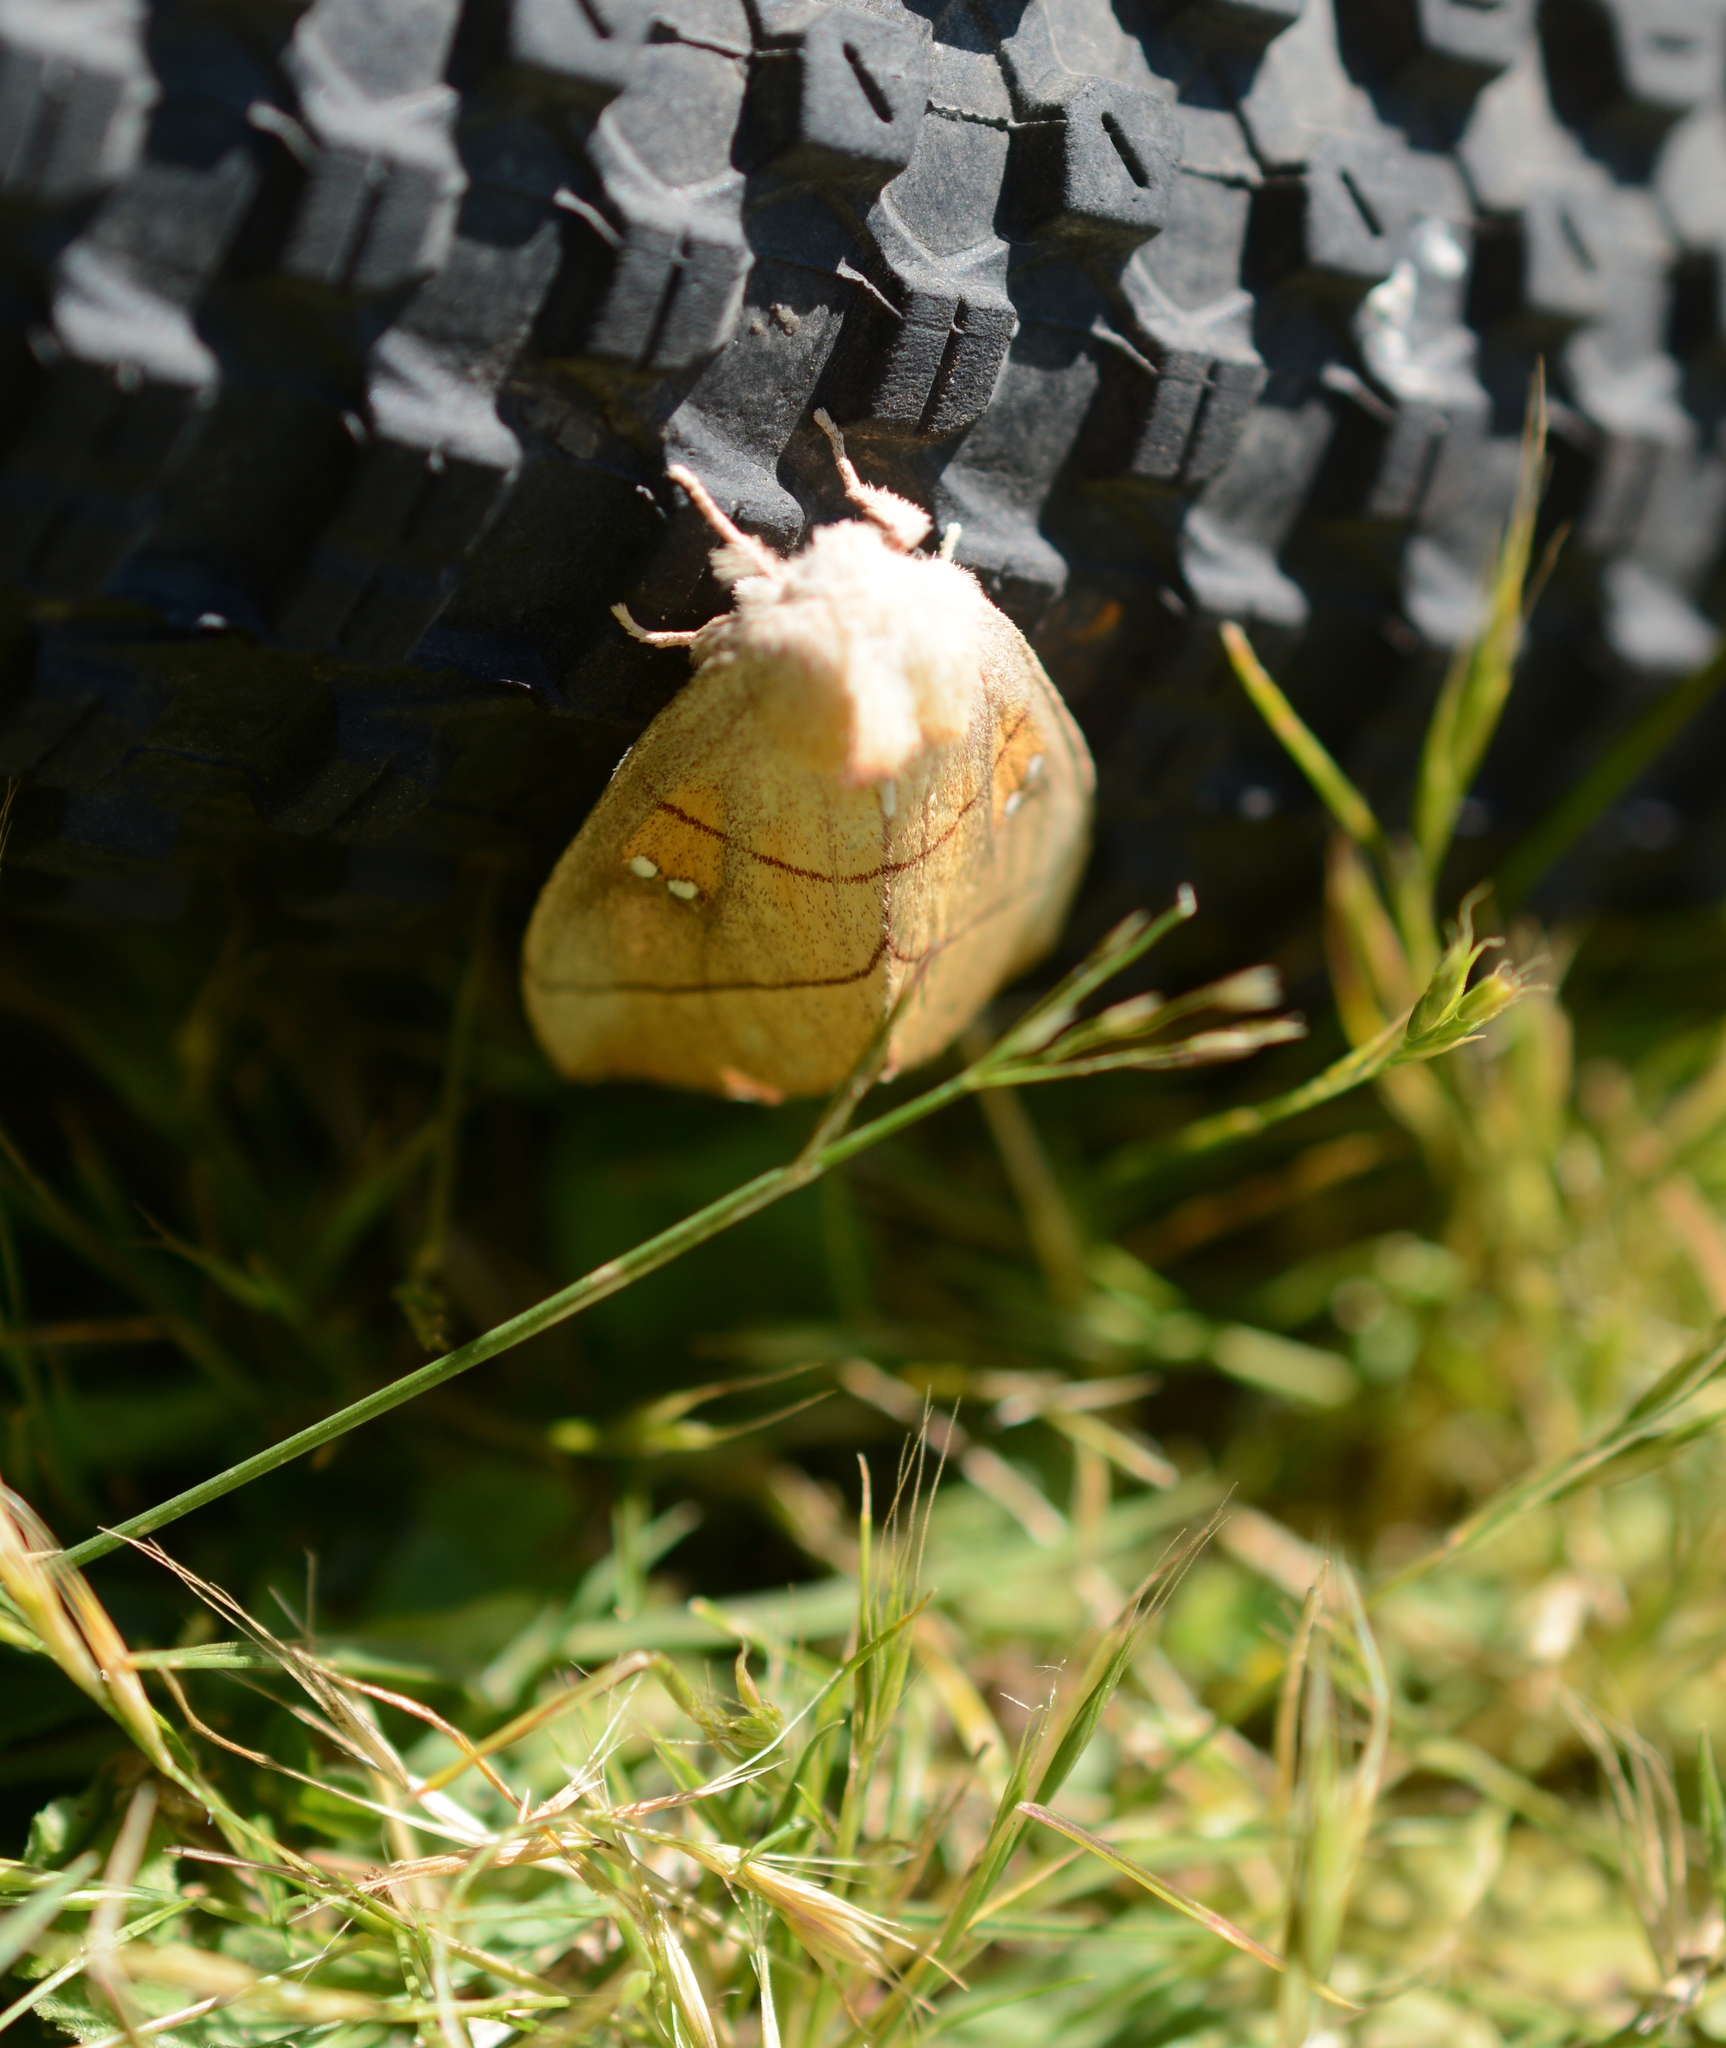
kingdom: Animalia
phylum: Arthropoda
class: Insecta
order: Lepidoptera
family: Notodontidae
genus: Nadata
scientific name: Nadata gibbosa
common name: White-dotted prominent
